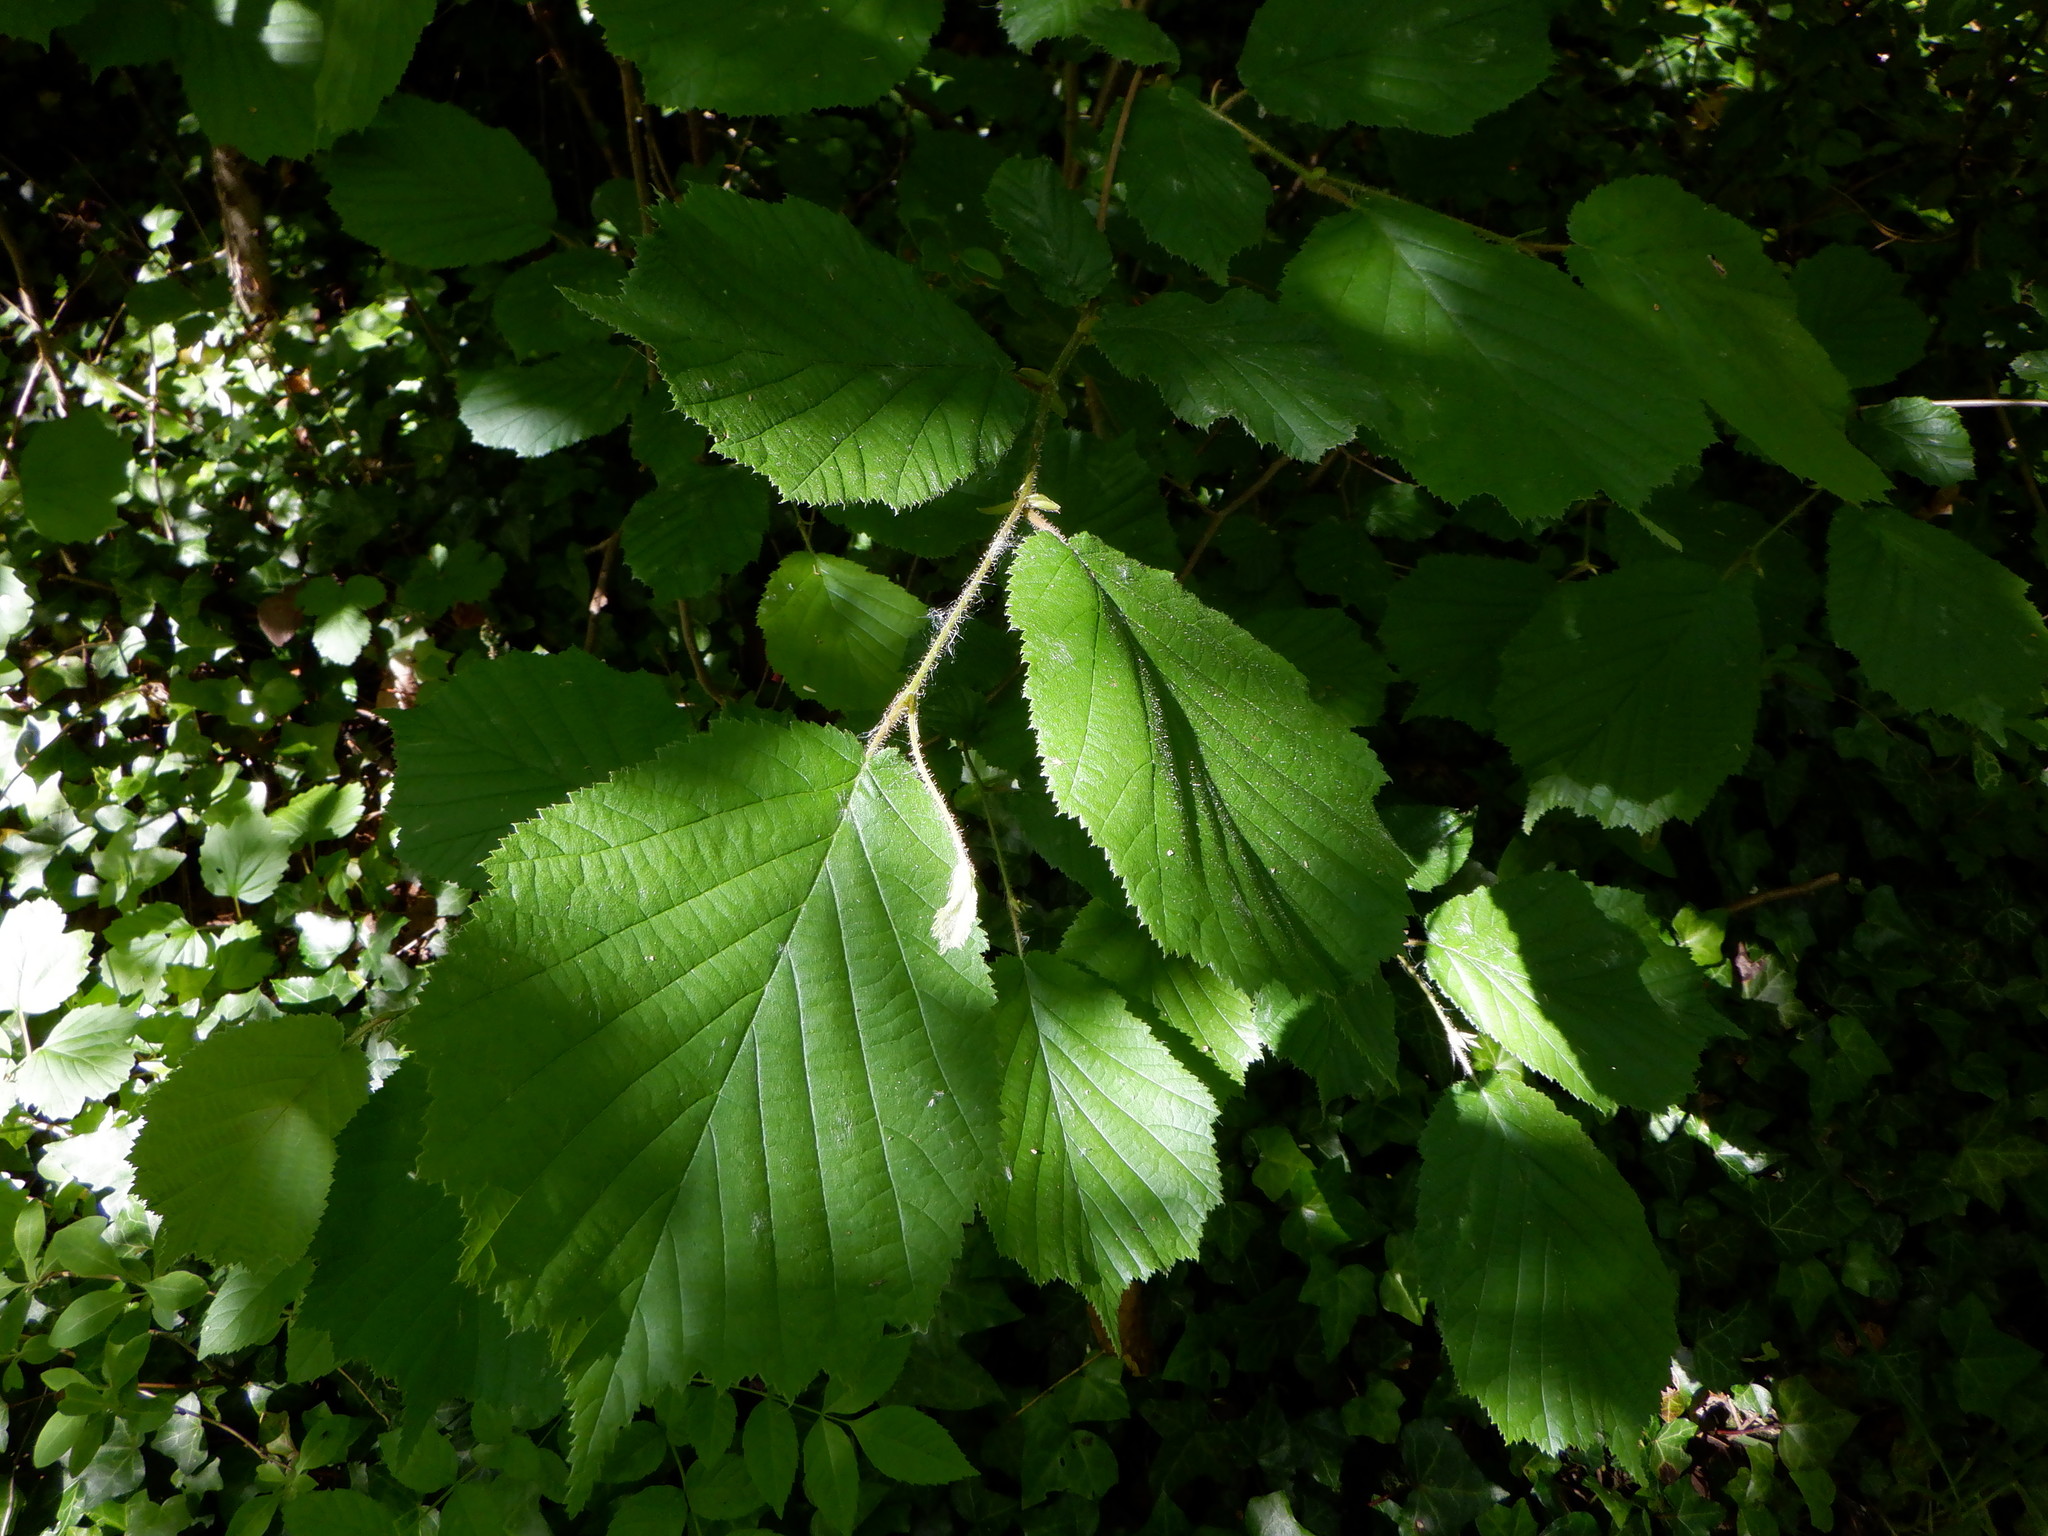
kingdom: Plantae
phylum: Tracheophyta
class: Magnoliopsida
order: Fagales
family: Betulaceae
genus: Corylus
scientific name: Corylus avellana
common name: European hazel
